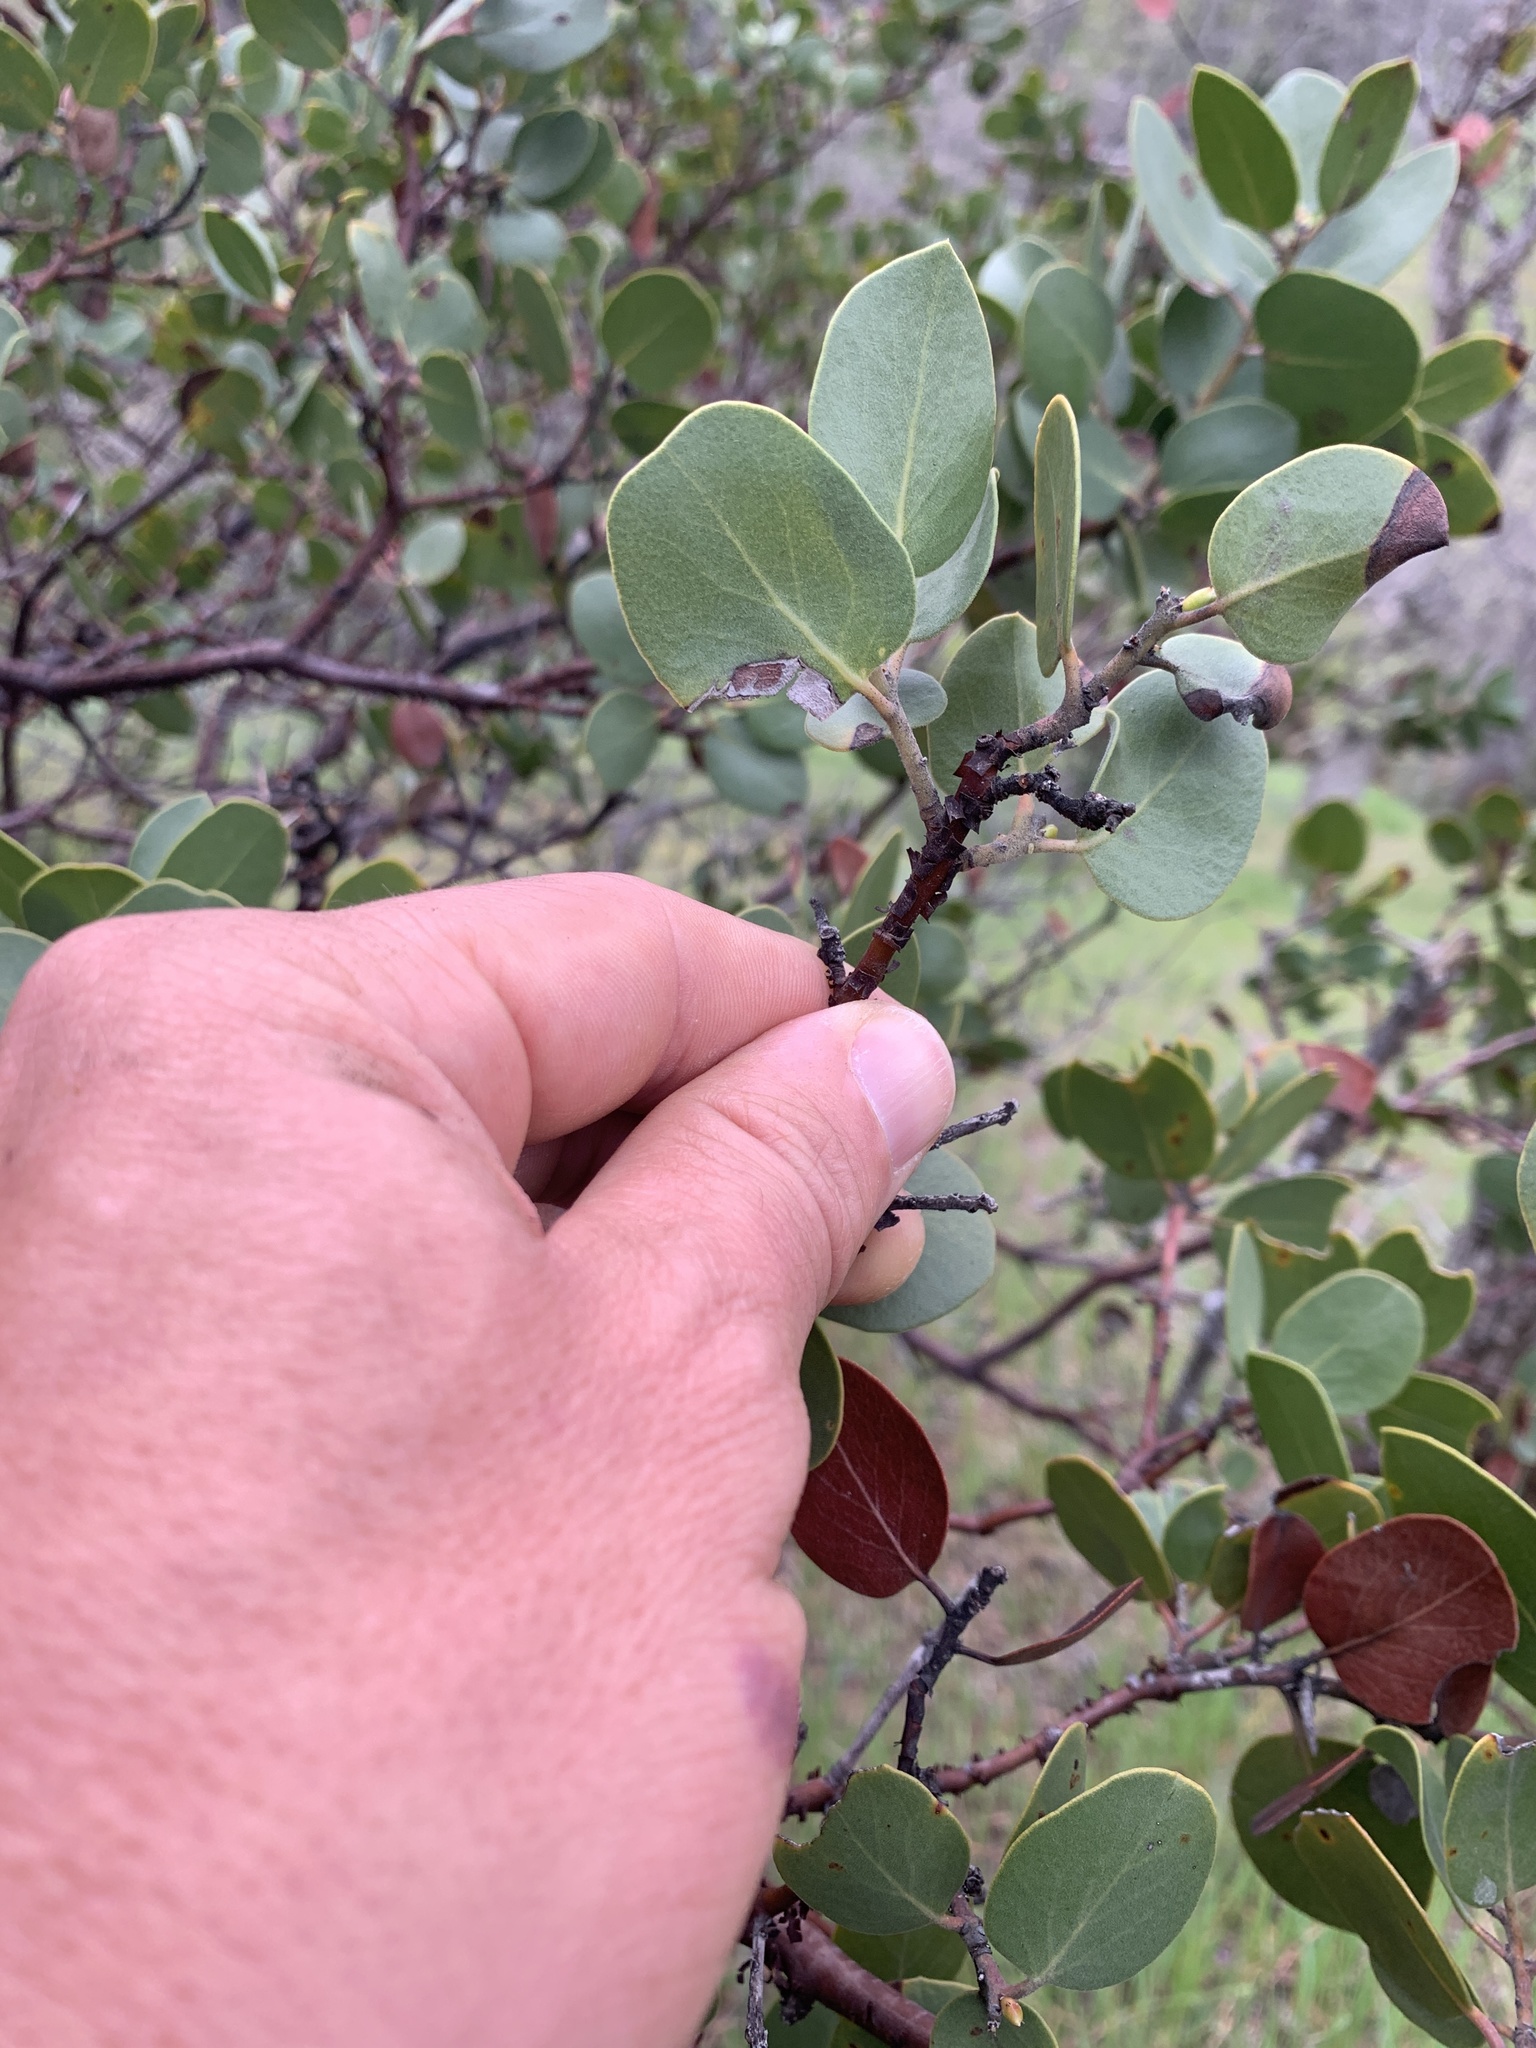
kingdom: Plantae
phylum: Tracheophyta
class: Magnoliopsida
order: Ericales
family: Ericaceae
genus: Arctostaphylos
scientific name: Arctostaphylos manzanita
